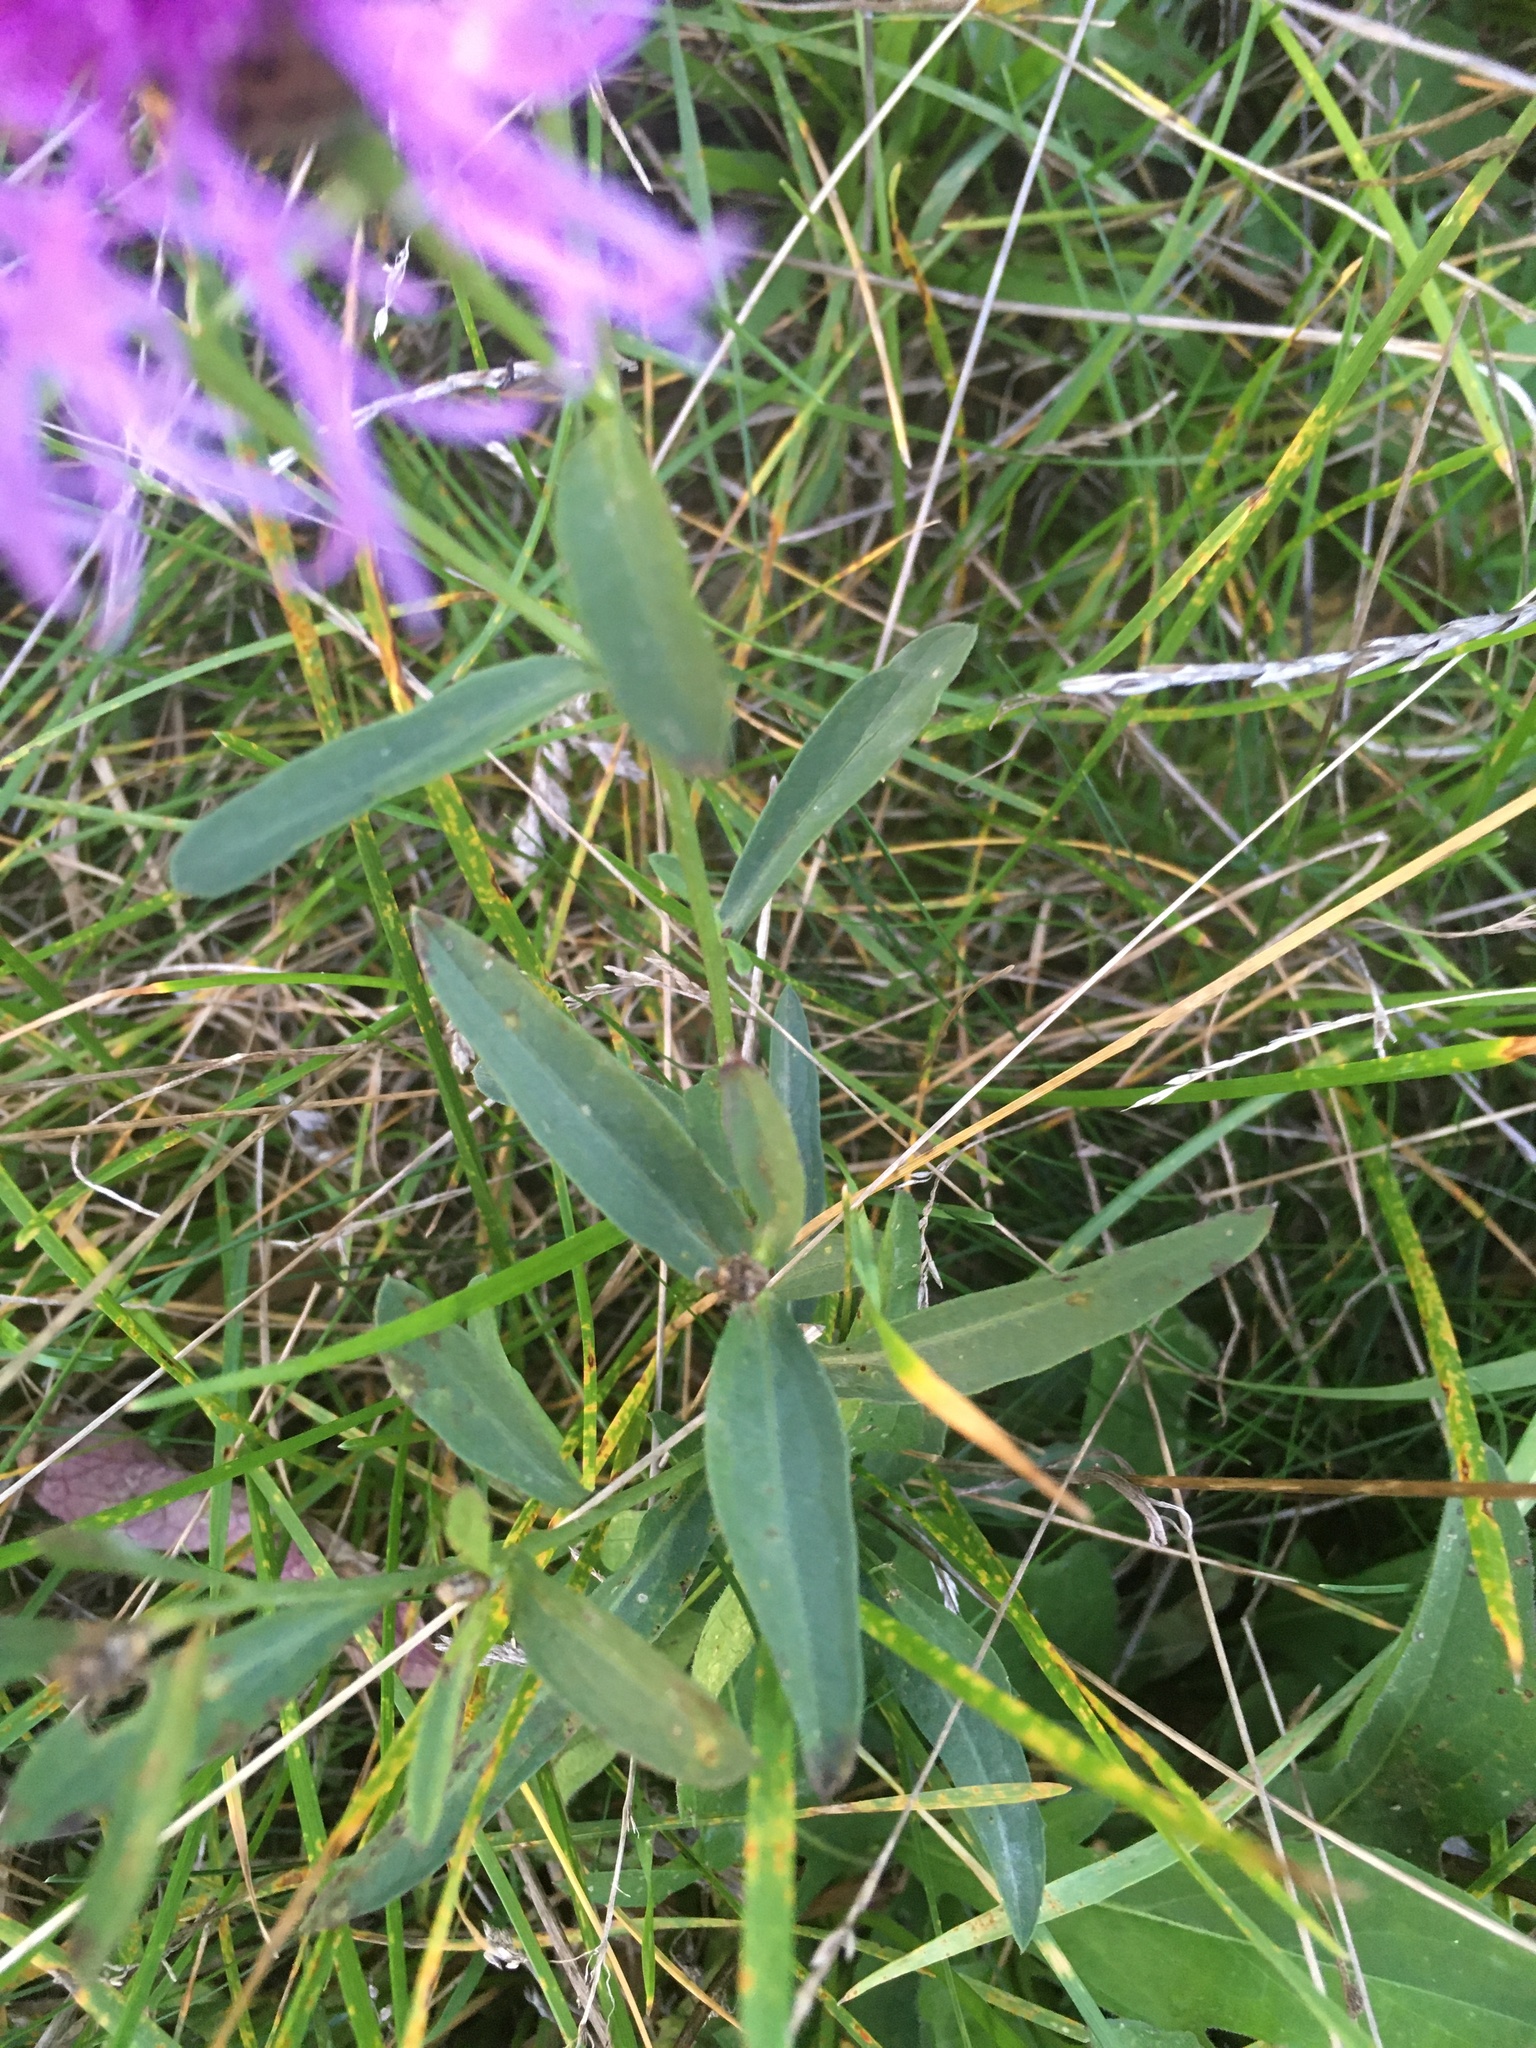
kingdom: Plantae
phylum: Tracheophyta
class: Magnoliopsida
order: Asterales
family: Asteraceae
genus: Centaurea
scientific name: Centaurea jacea
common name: Brown knapweed
